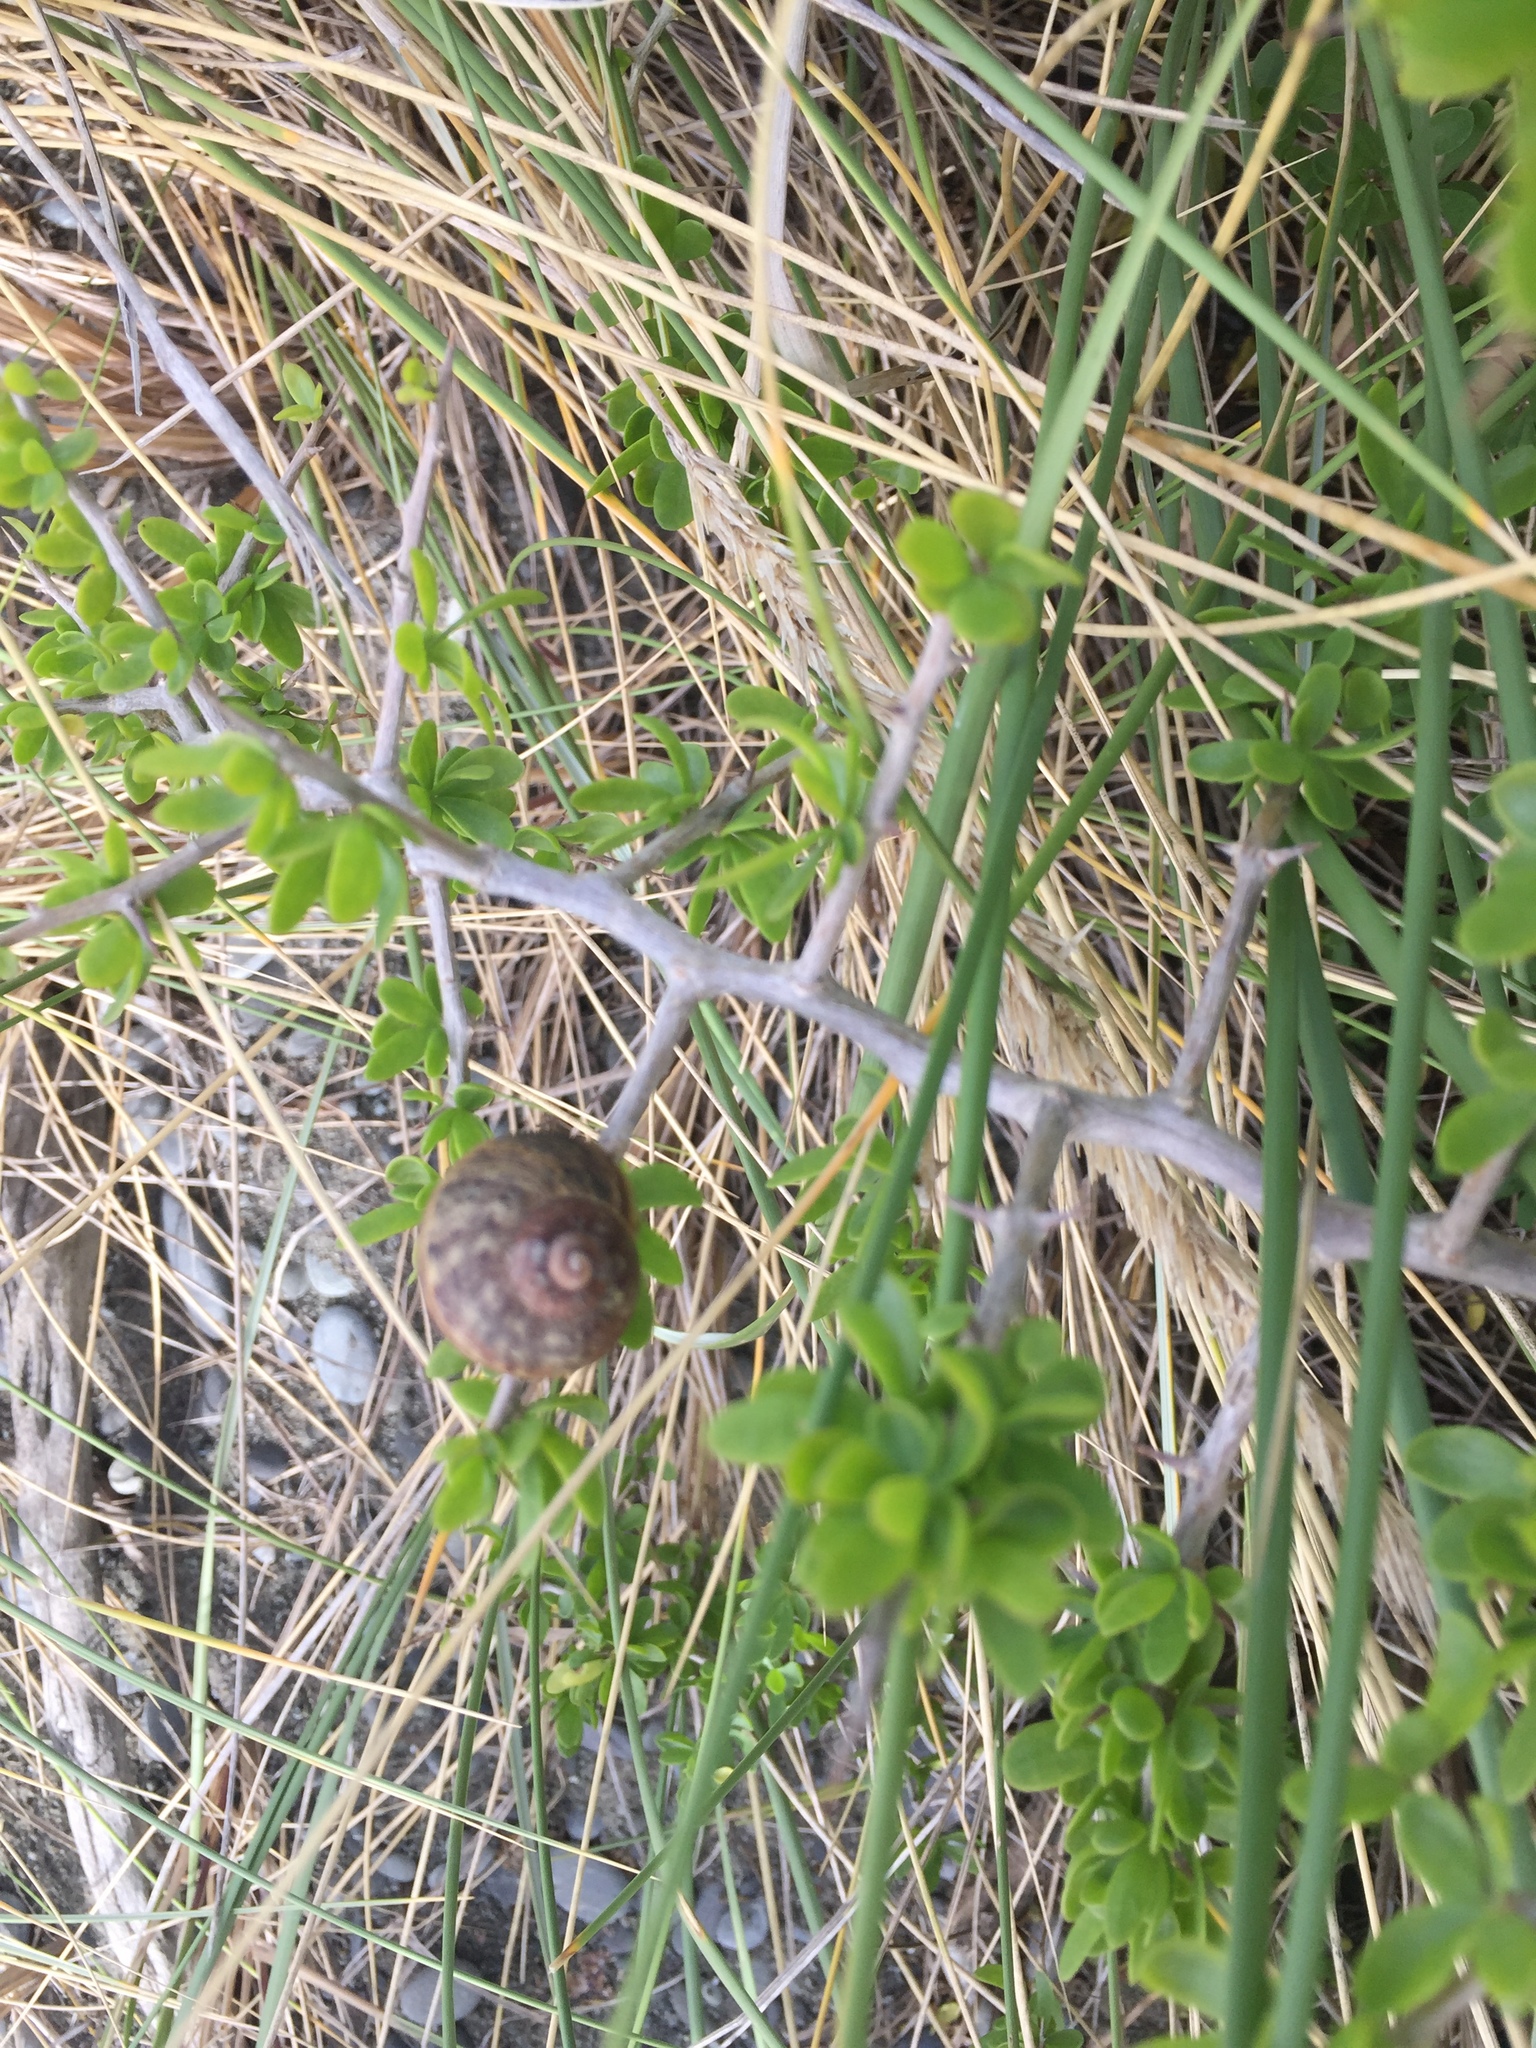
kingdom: Animalia
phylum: Mollusca
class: Gastropoda
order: Stylommatophora
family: Helicidae
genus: Cornu
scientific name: Cornu aspersum
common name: Brown garden snail
